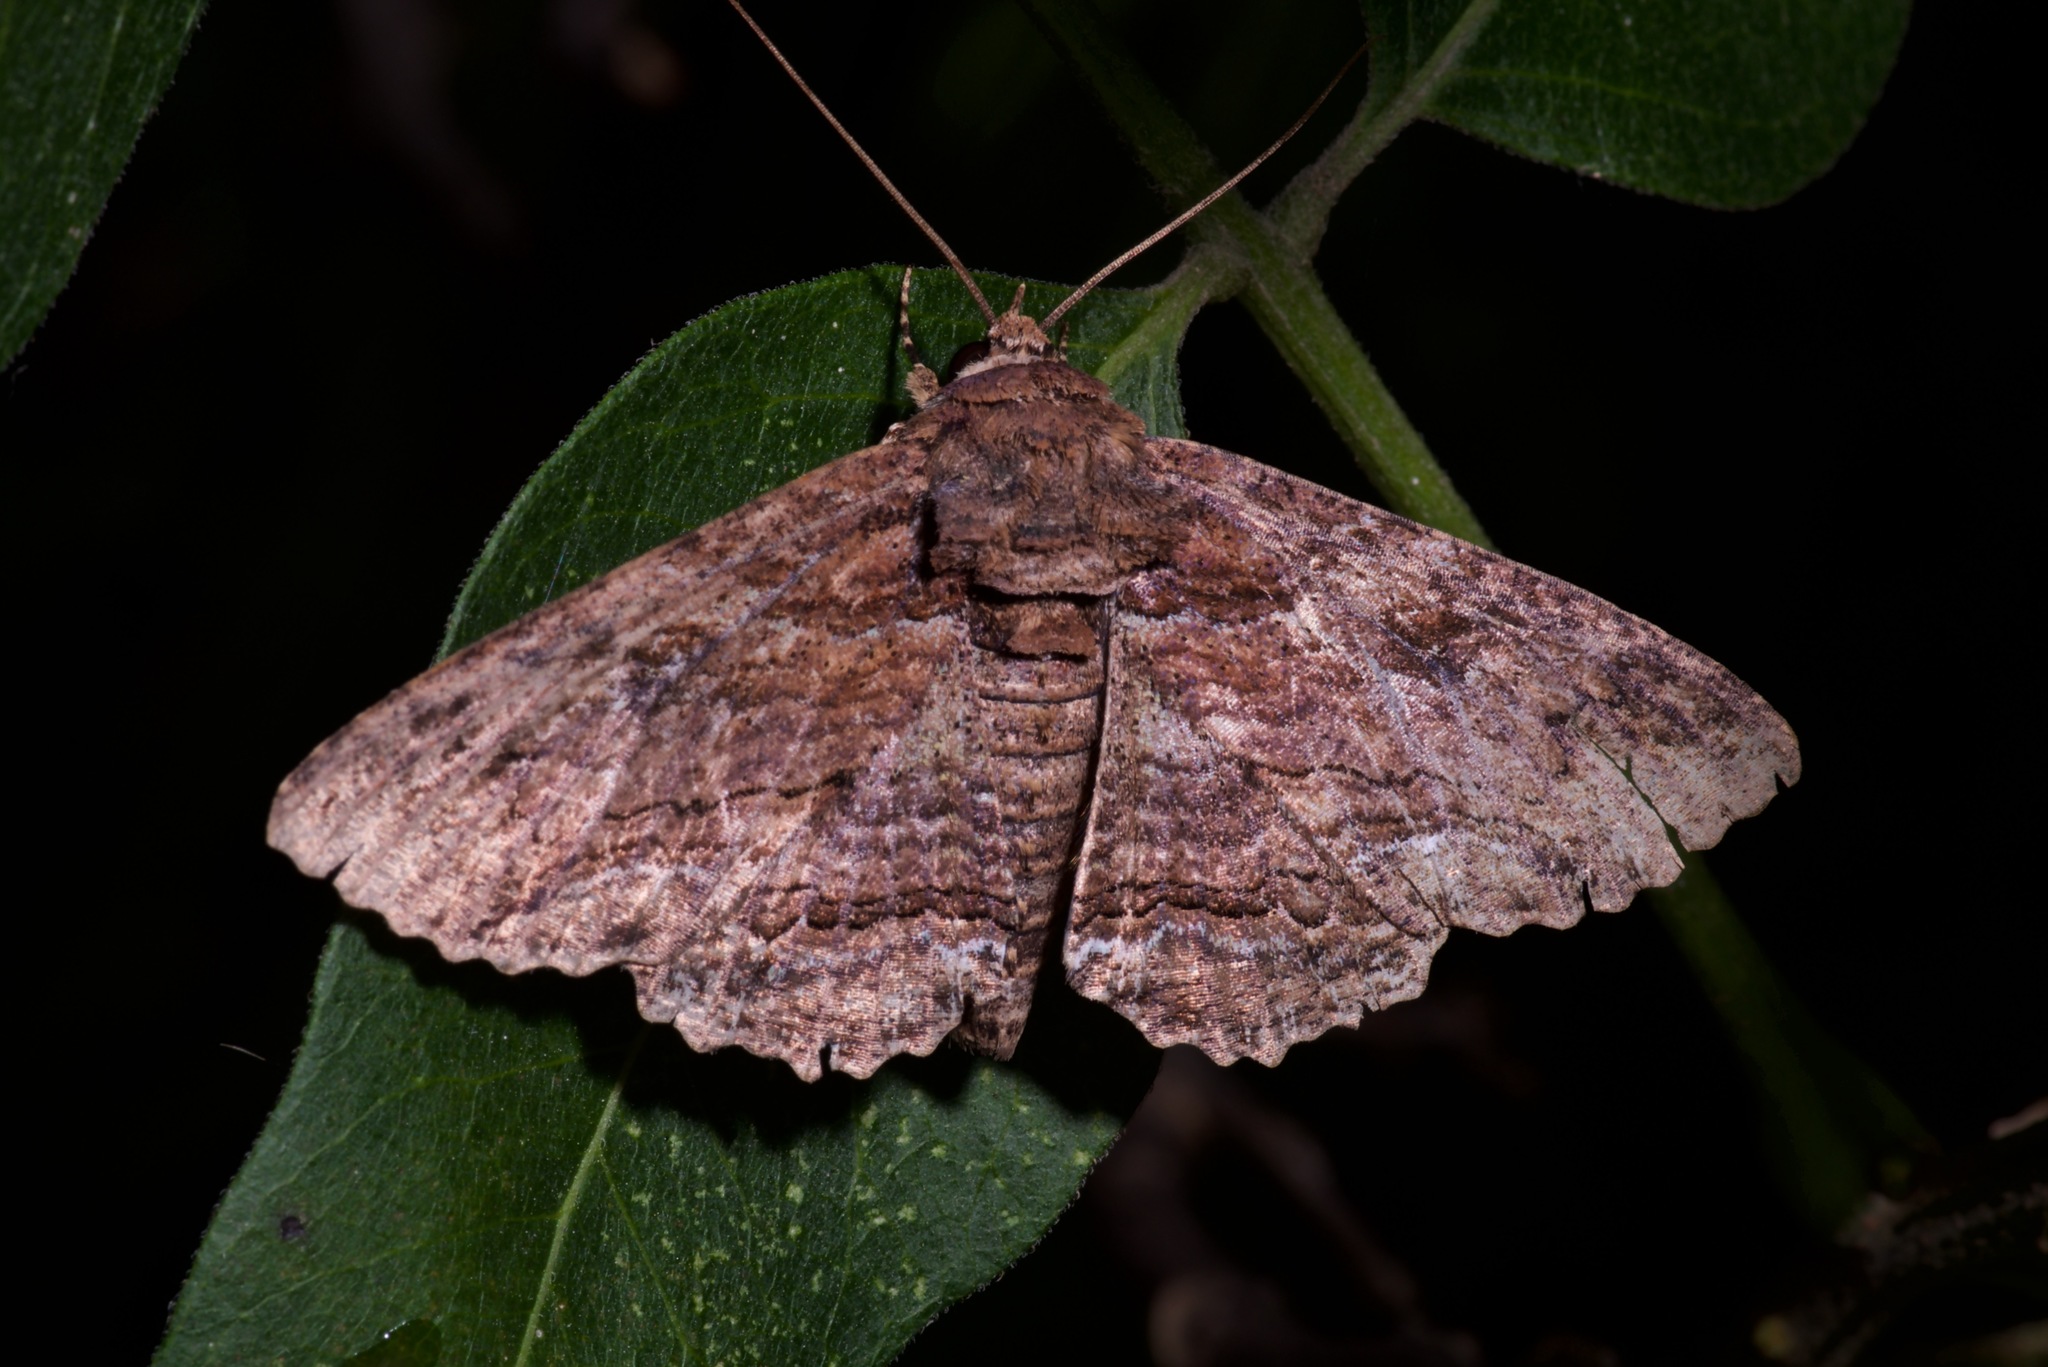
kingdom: Animalia
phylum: Arthropoda
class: Insecta
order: Lepidoptera
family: Erebidae
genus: Zale
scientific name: Zale lunata
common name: Lunate zale moth
